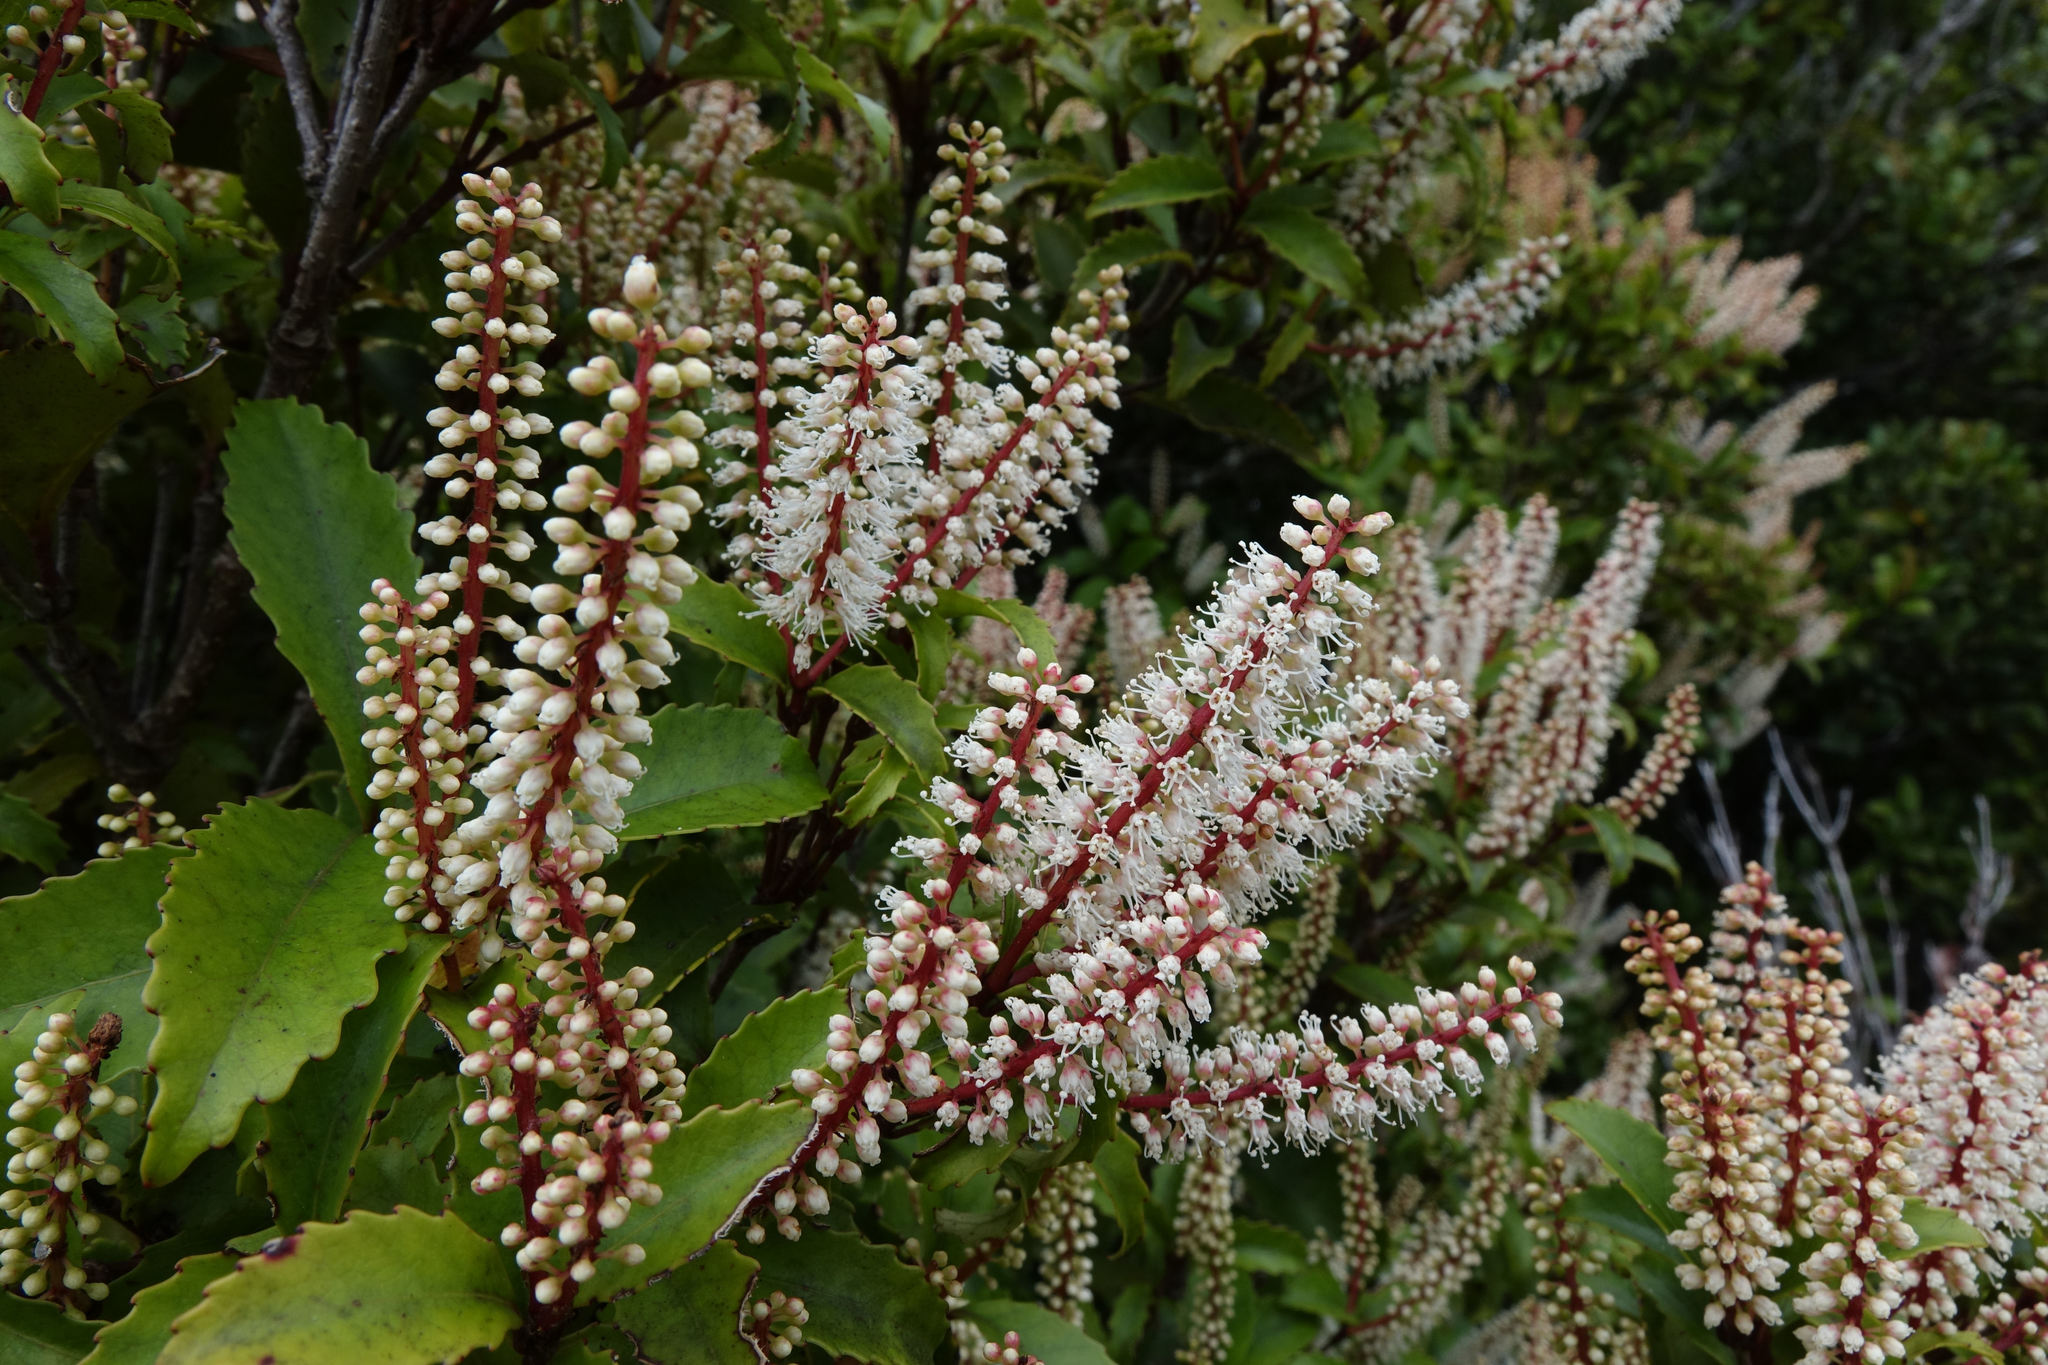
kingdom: Plantae
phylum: Tracheophyta
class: Magnoliopsida
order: Oxalidales
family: Cunoniaceae
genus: Pterophylla
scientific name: Pterophylla racemosa
